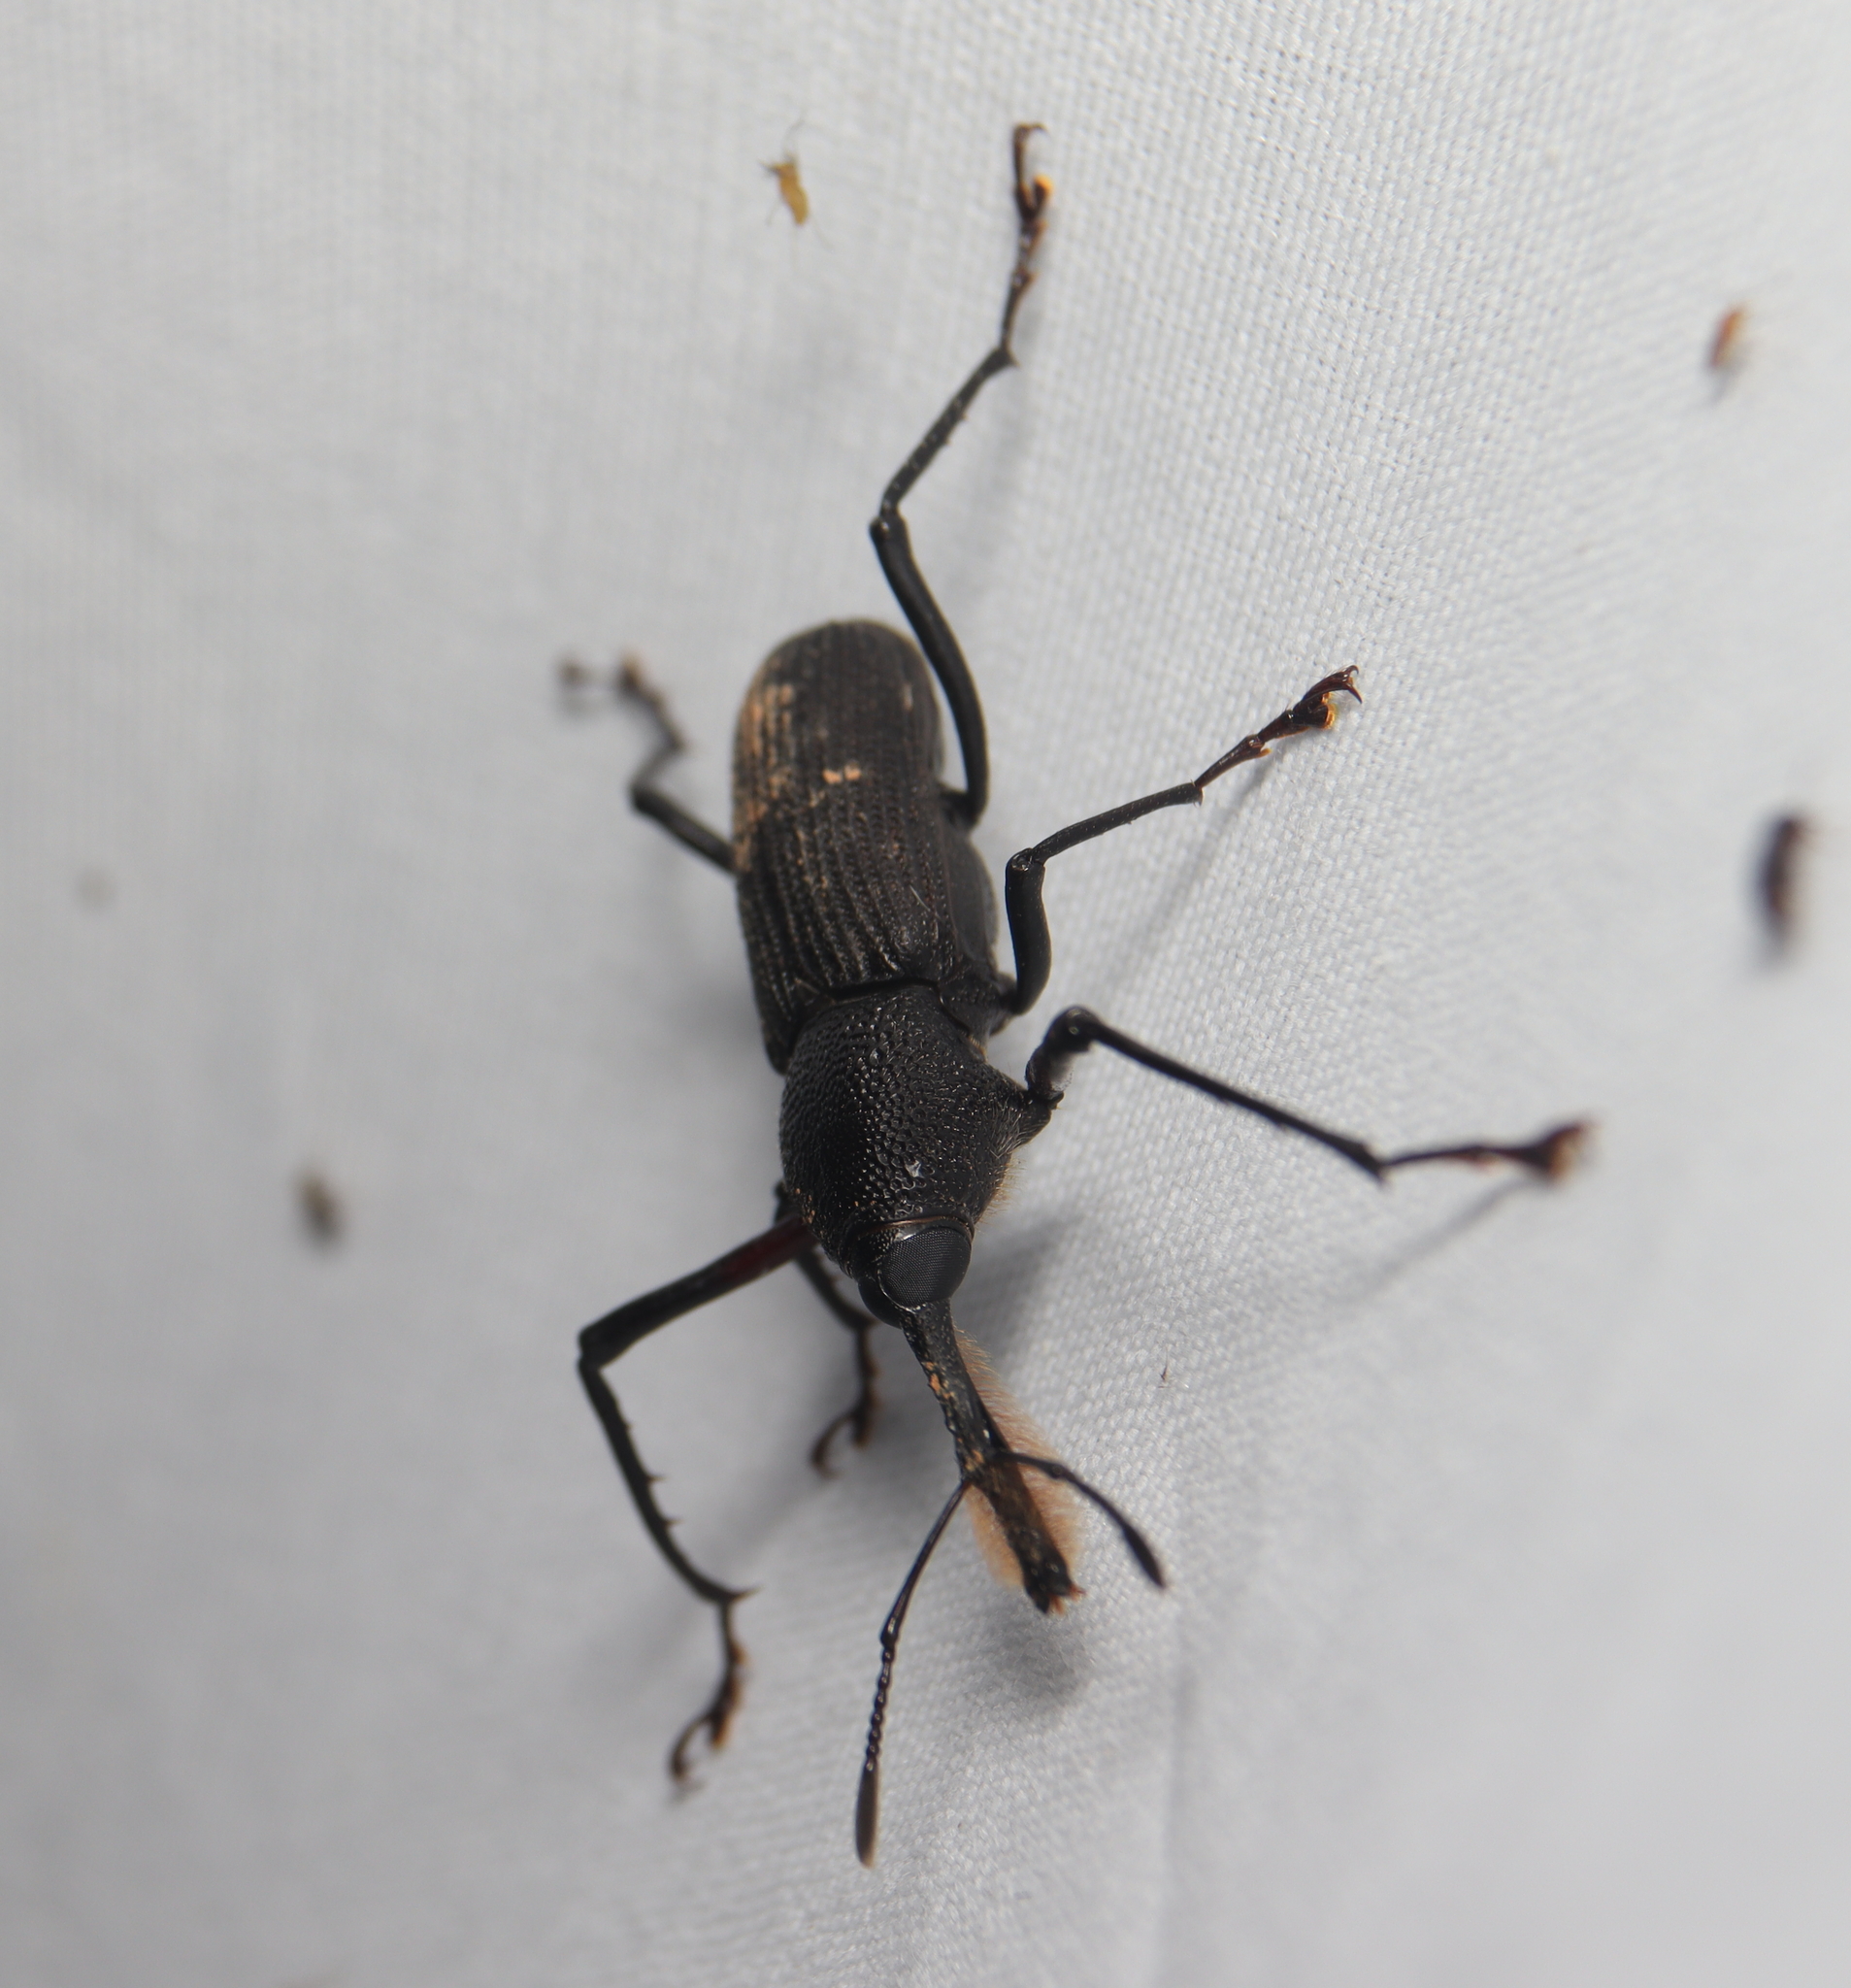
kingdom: Animalia
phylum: Arthropoda
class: Insecta
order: Coleoptera
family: Dryophthoridae
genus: Rhinostomus
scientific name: Rhinostomus barbirostris
